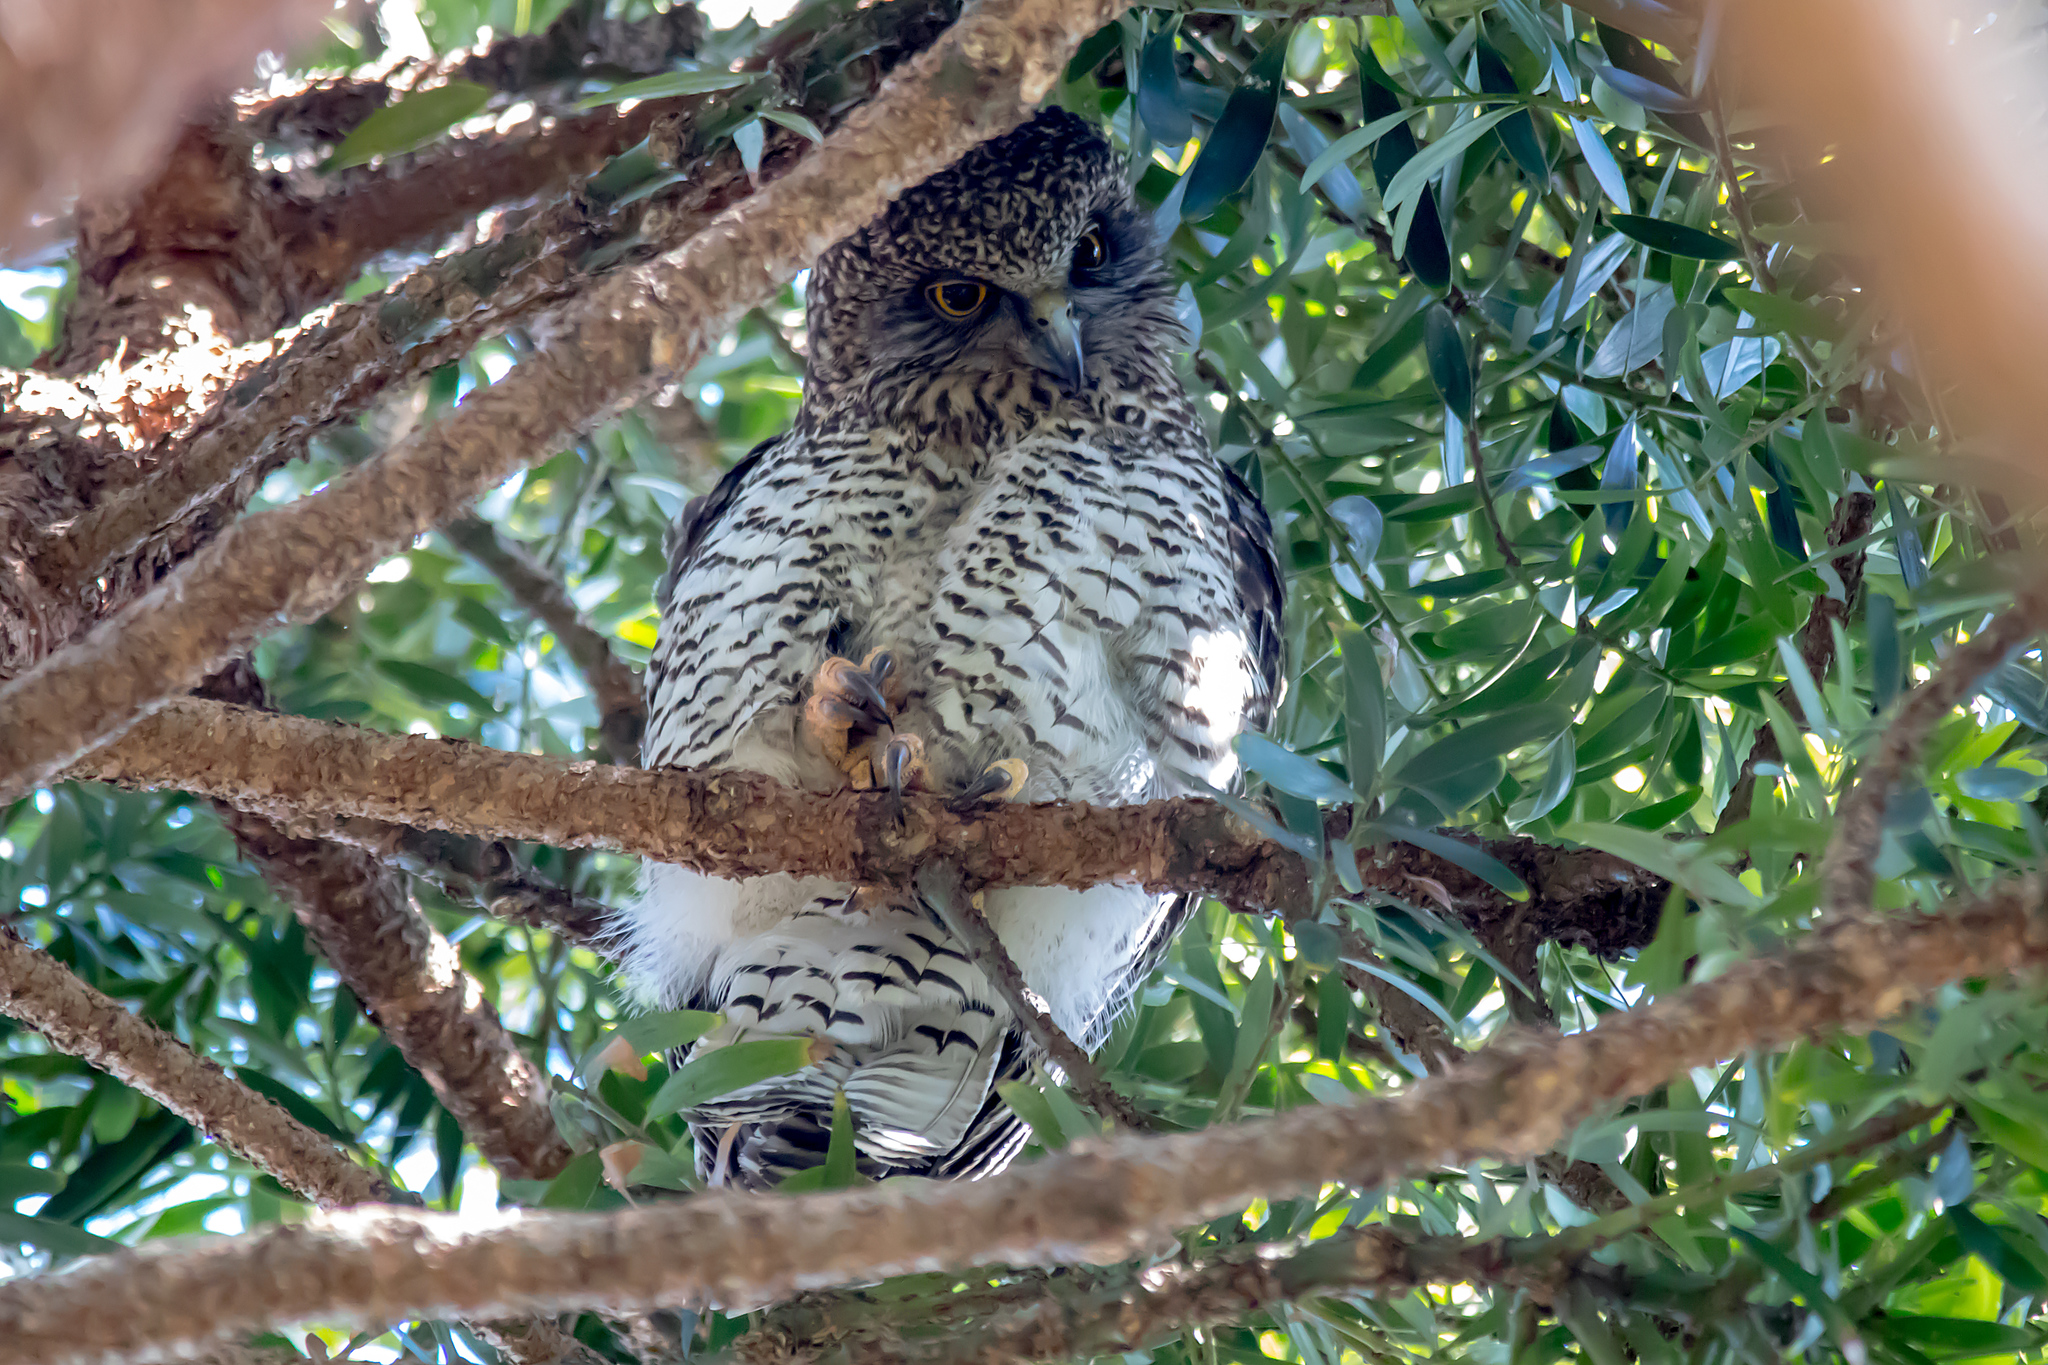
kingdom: Animalia
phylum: Chordata
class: Aves
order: Strigiformes
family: Strigidae
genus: Ninox
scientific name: Ninox strenua
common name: Powerful owl
